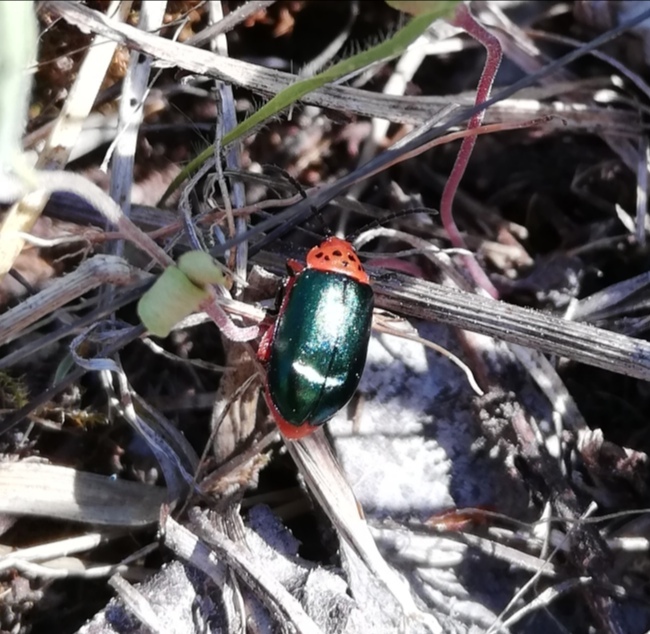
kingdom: Animalia
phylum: Arthropoda
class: Insecta
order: Coleoptera
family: Chrysomelidae
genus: Kuschelina
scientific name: Kuschelina thoracica
